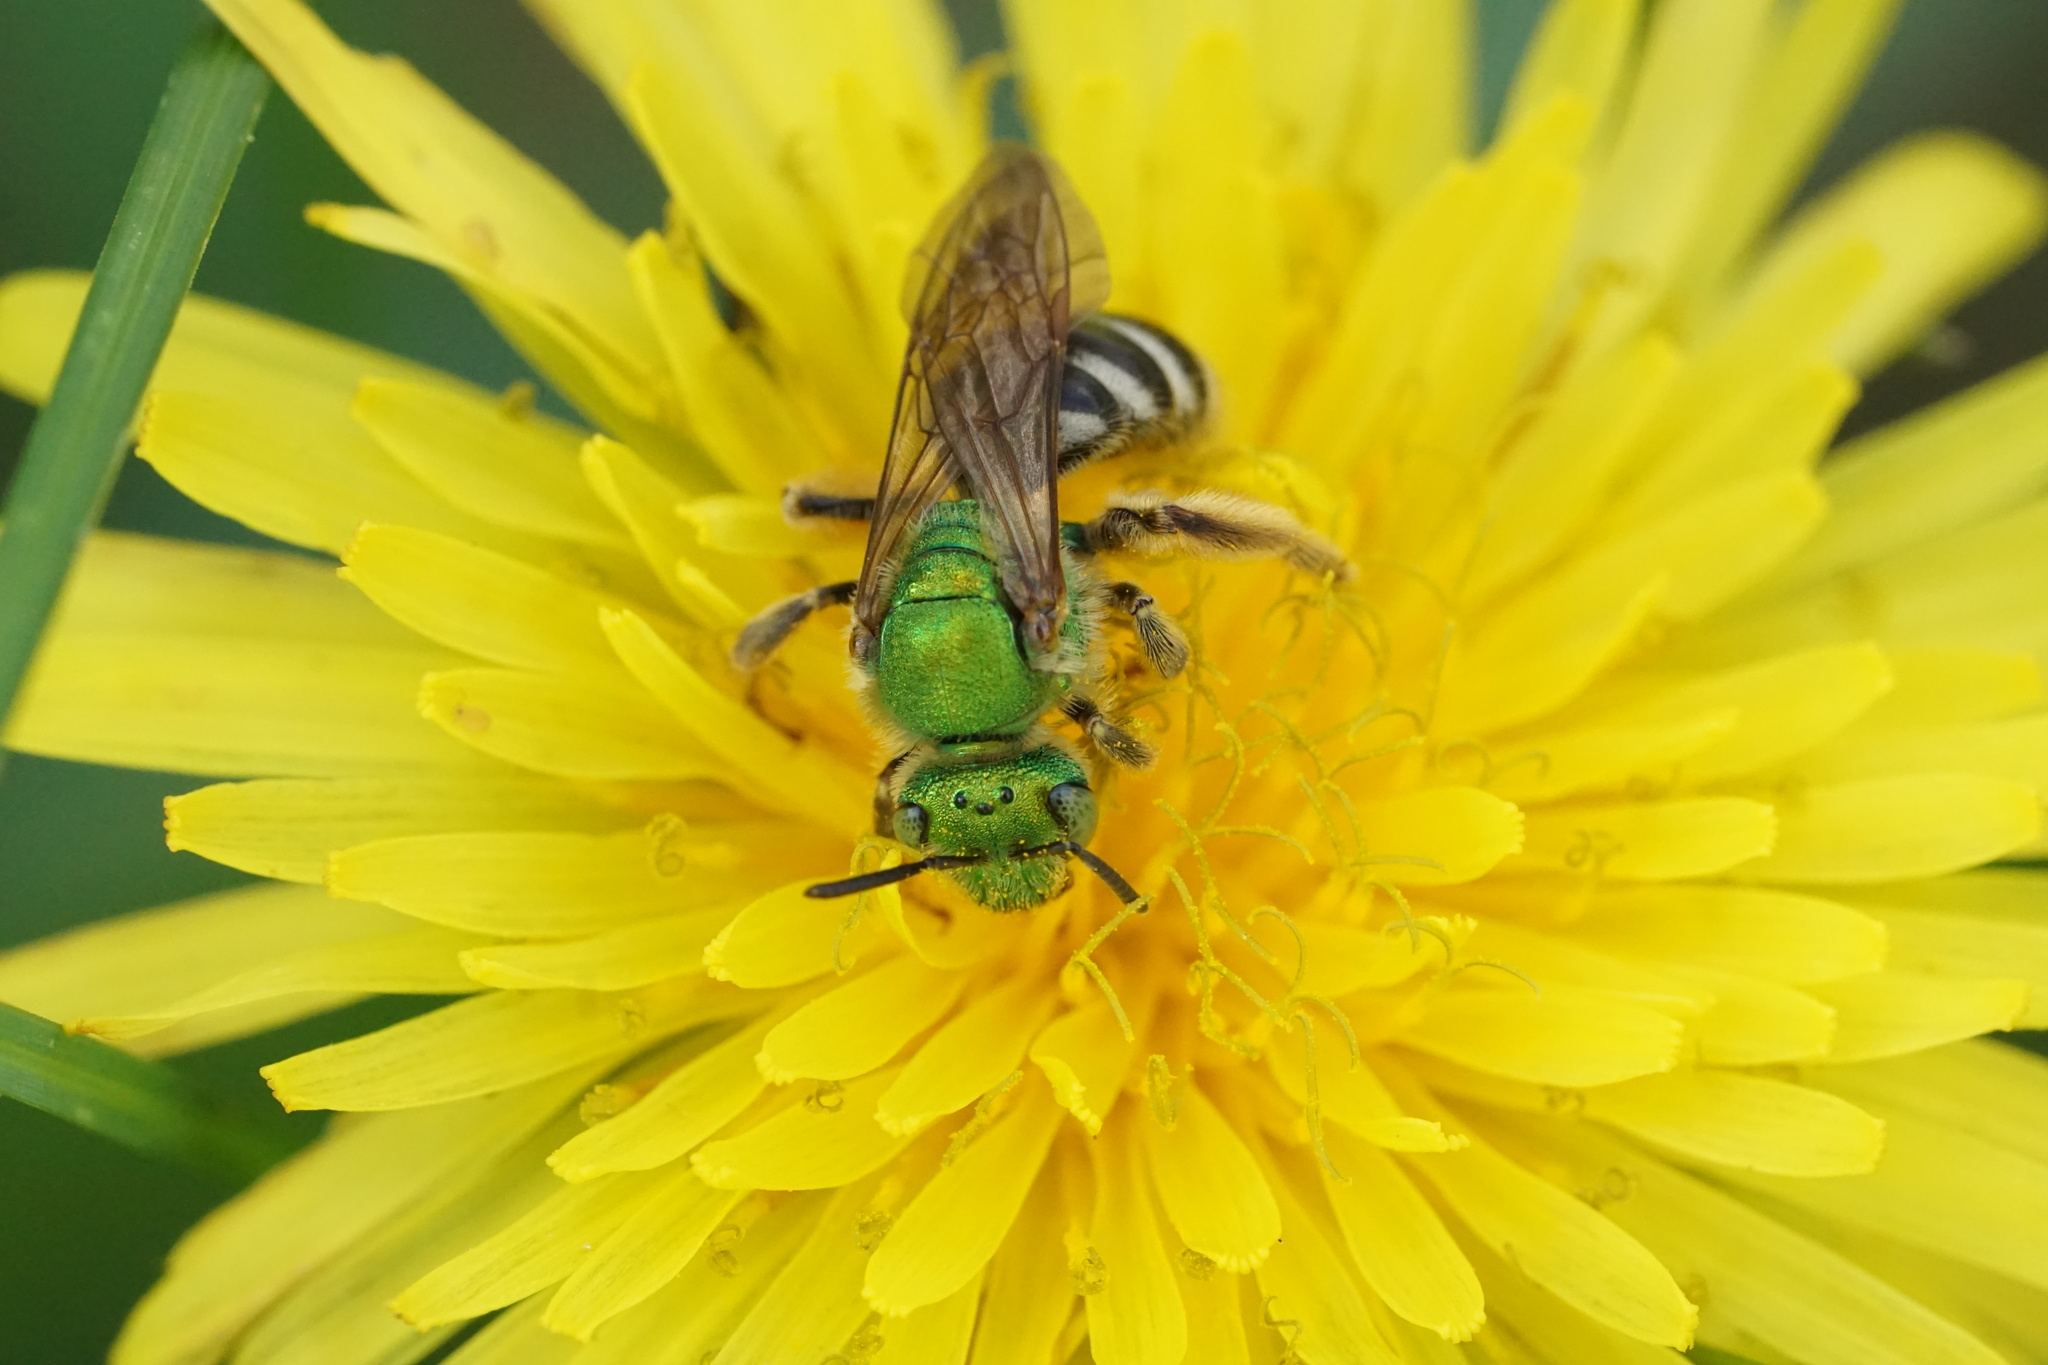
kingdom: Animalia
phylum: Arthropoda
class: Insecta
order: Hymenoptera
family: Halictidae
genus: Agapostemon
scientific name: Agapostemon virescens
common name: Bicolored striped sweat bee
